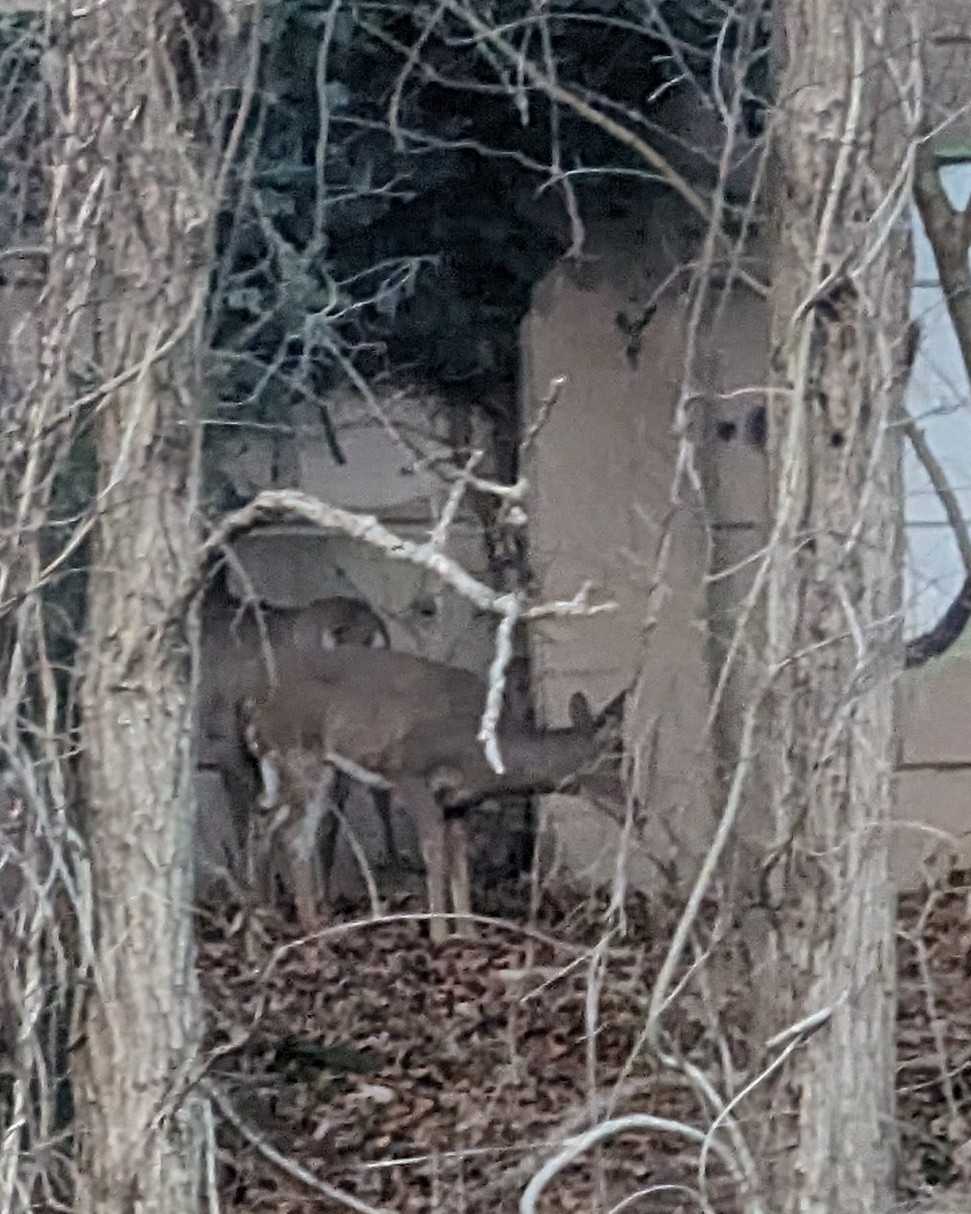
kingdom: Animalia
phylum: Chordata
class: Mammalia
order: Artiodactyla
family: Cervidae
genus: Odocoileus
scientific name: Odocoileus virginianus
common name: White-tailed deer
